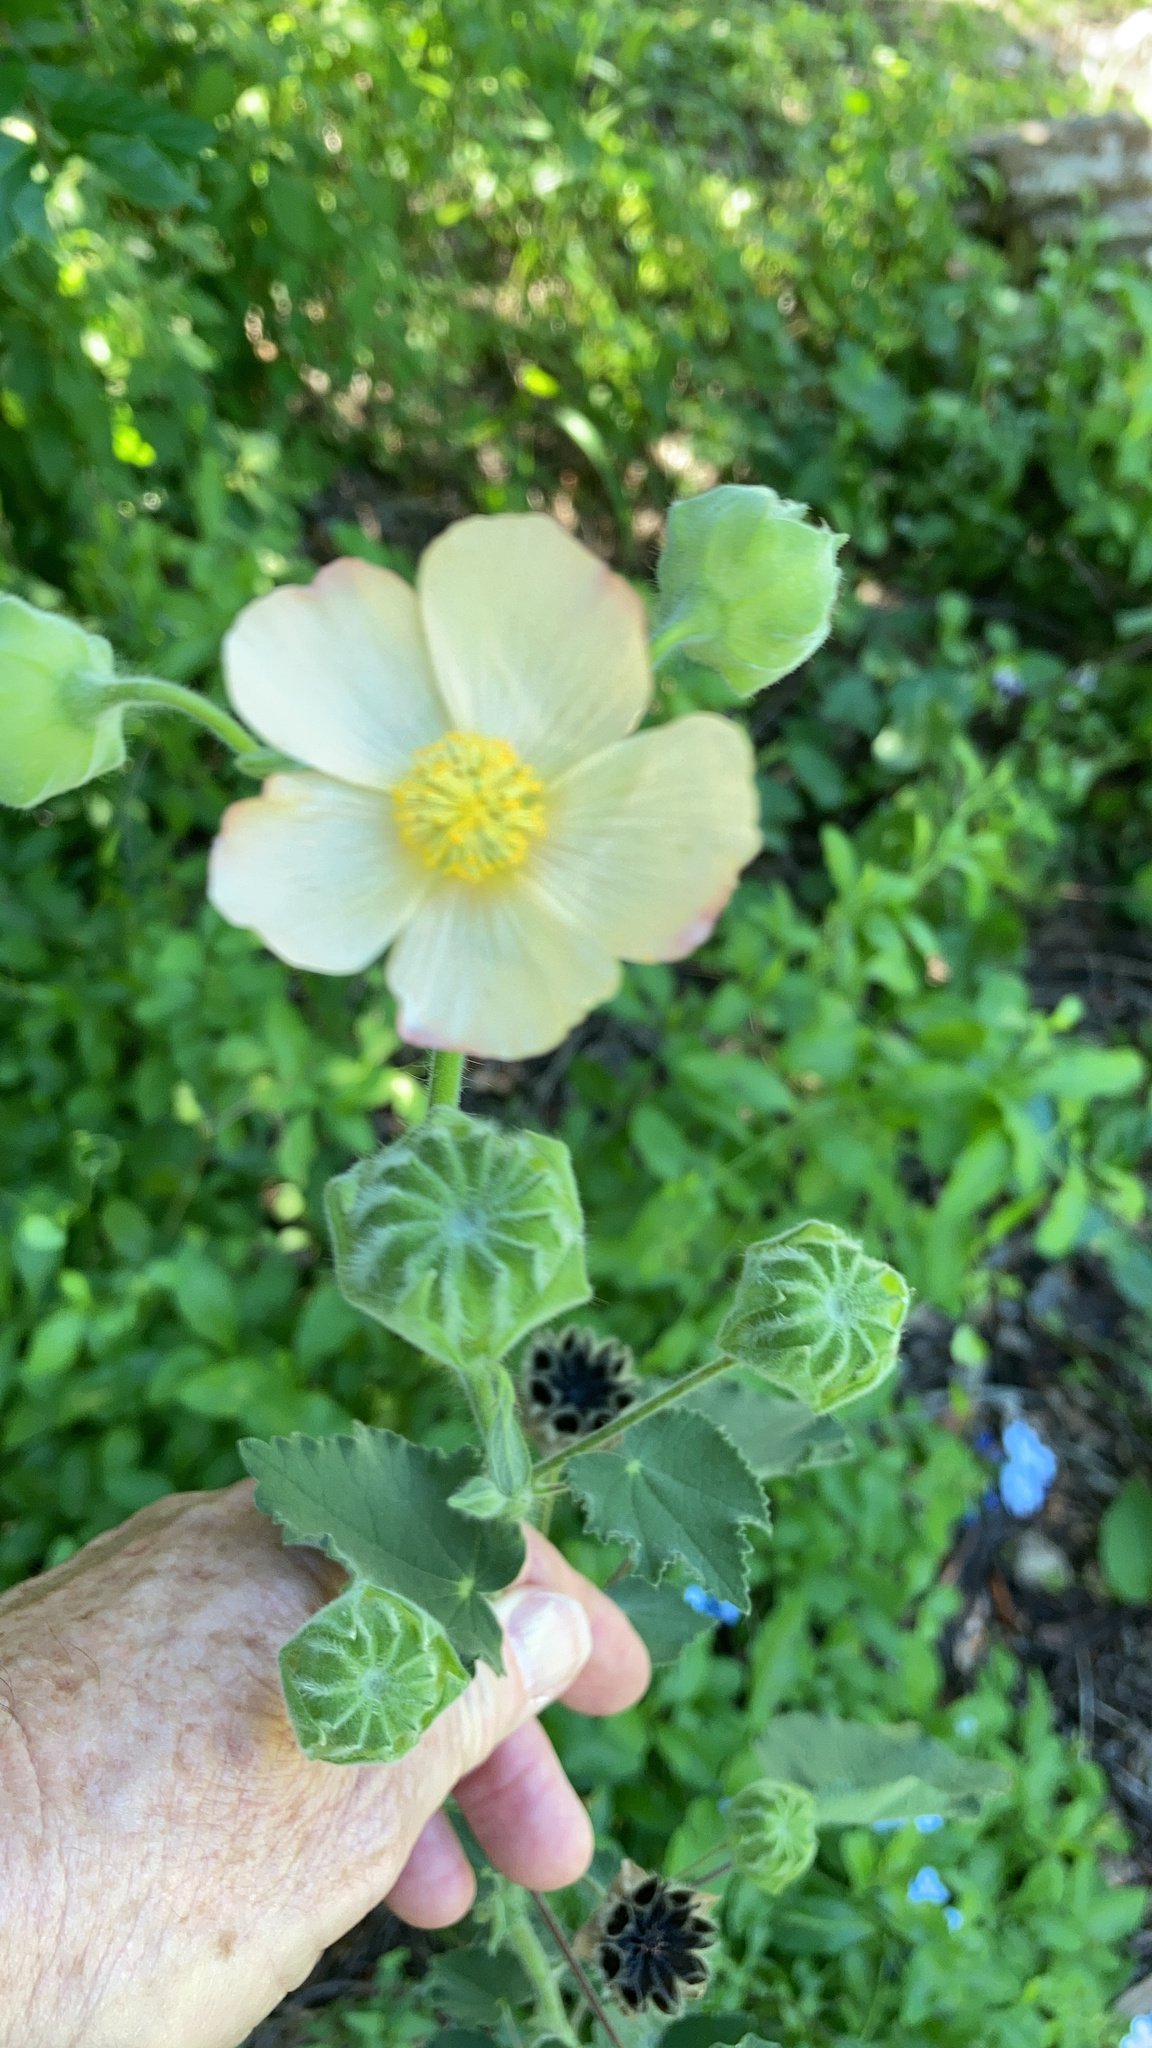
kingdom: Plantae
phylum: Tracheophyta
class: Magnoliopsida
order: Malvales
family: Malvaceae
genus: Abutilon
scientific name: Abutilon hulseanum
